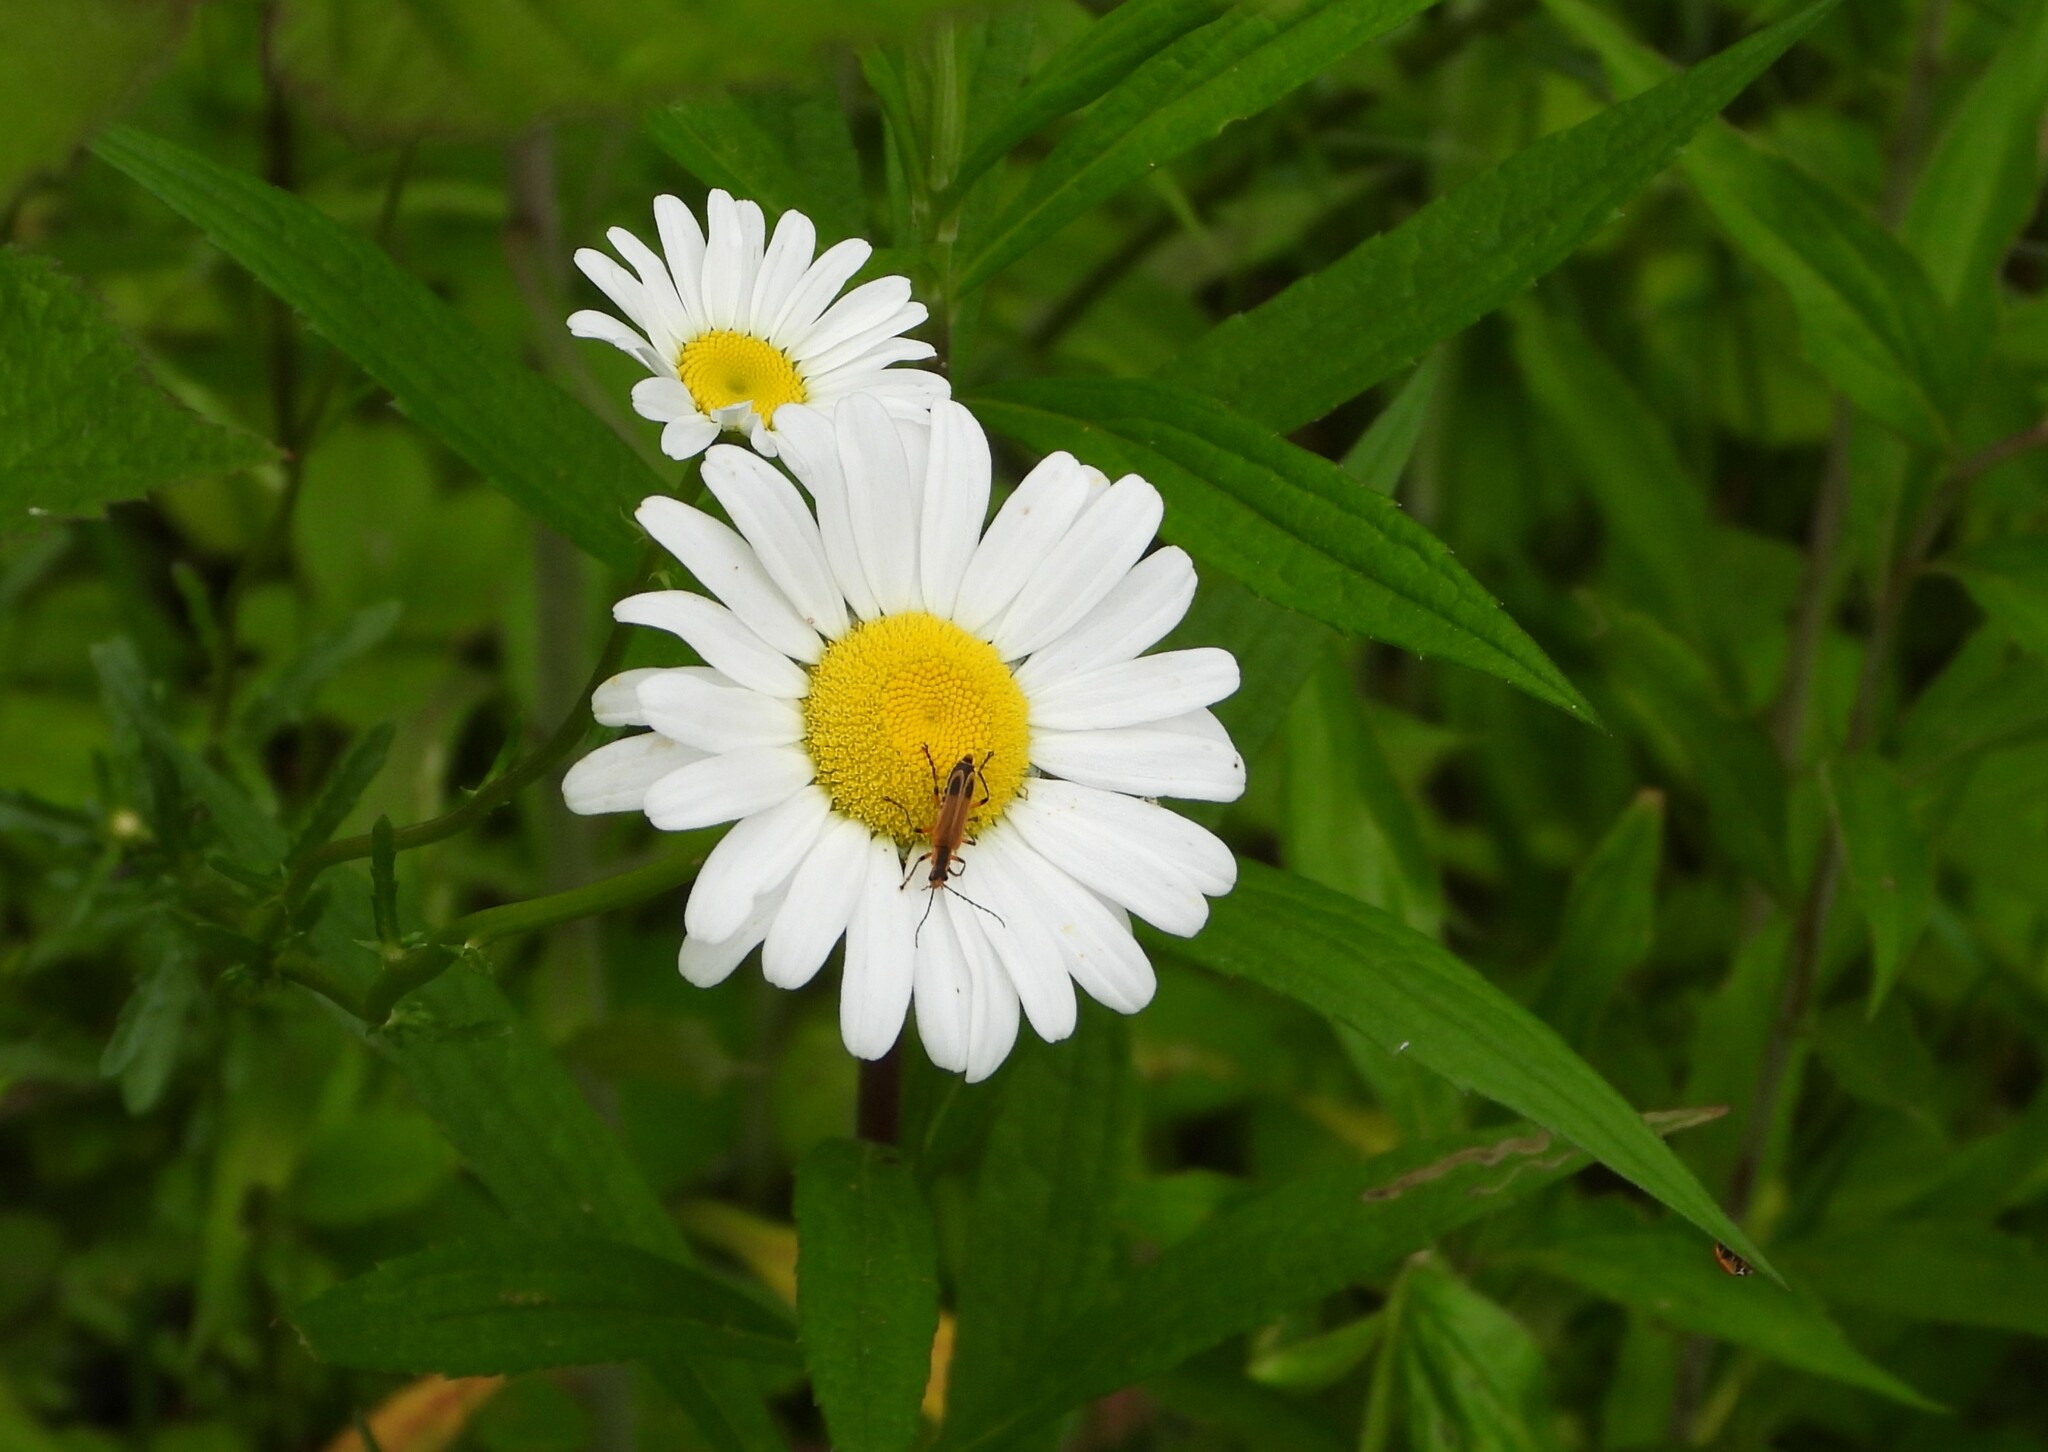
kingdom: Animalia
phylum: Arthropoda
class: Insecta
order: Coleoptera
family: Cantharidae
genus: Chauliognathus
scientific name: Chauliognathus marginatus
